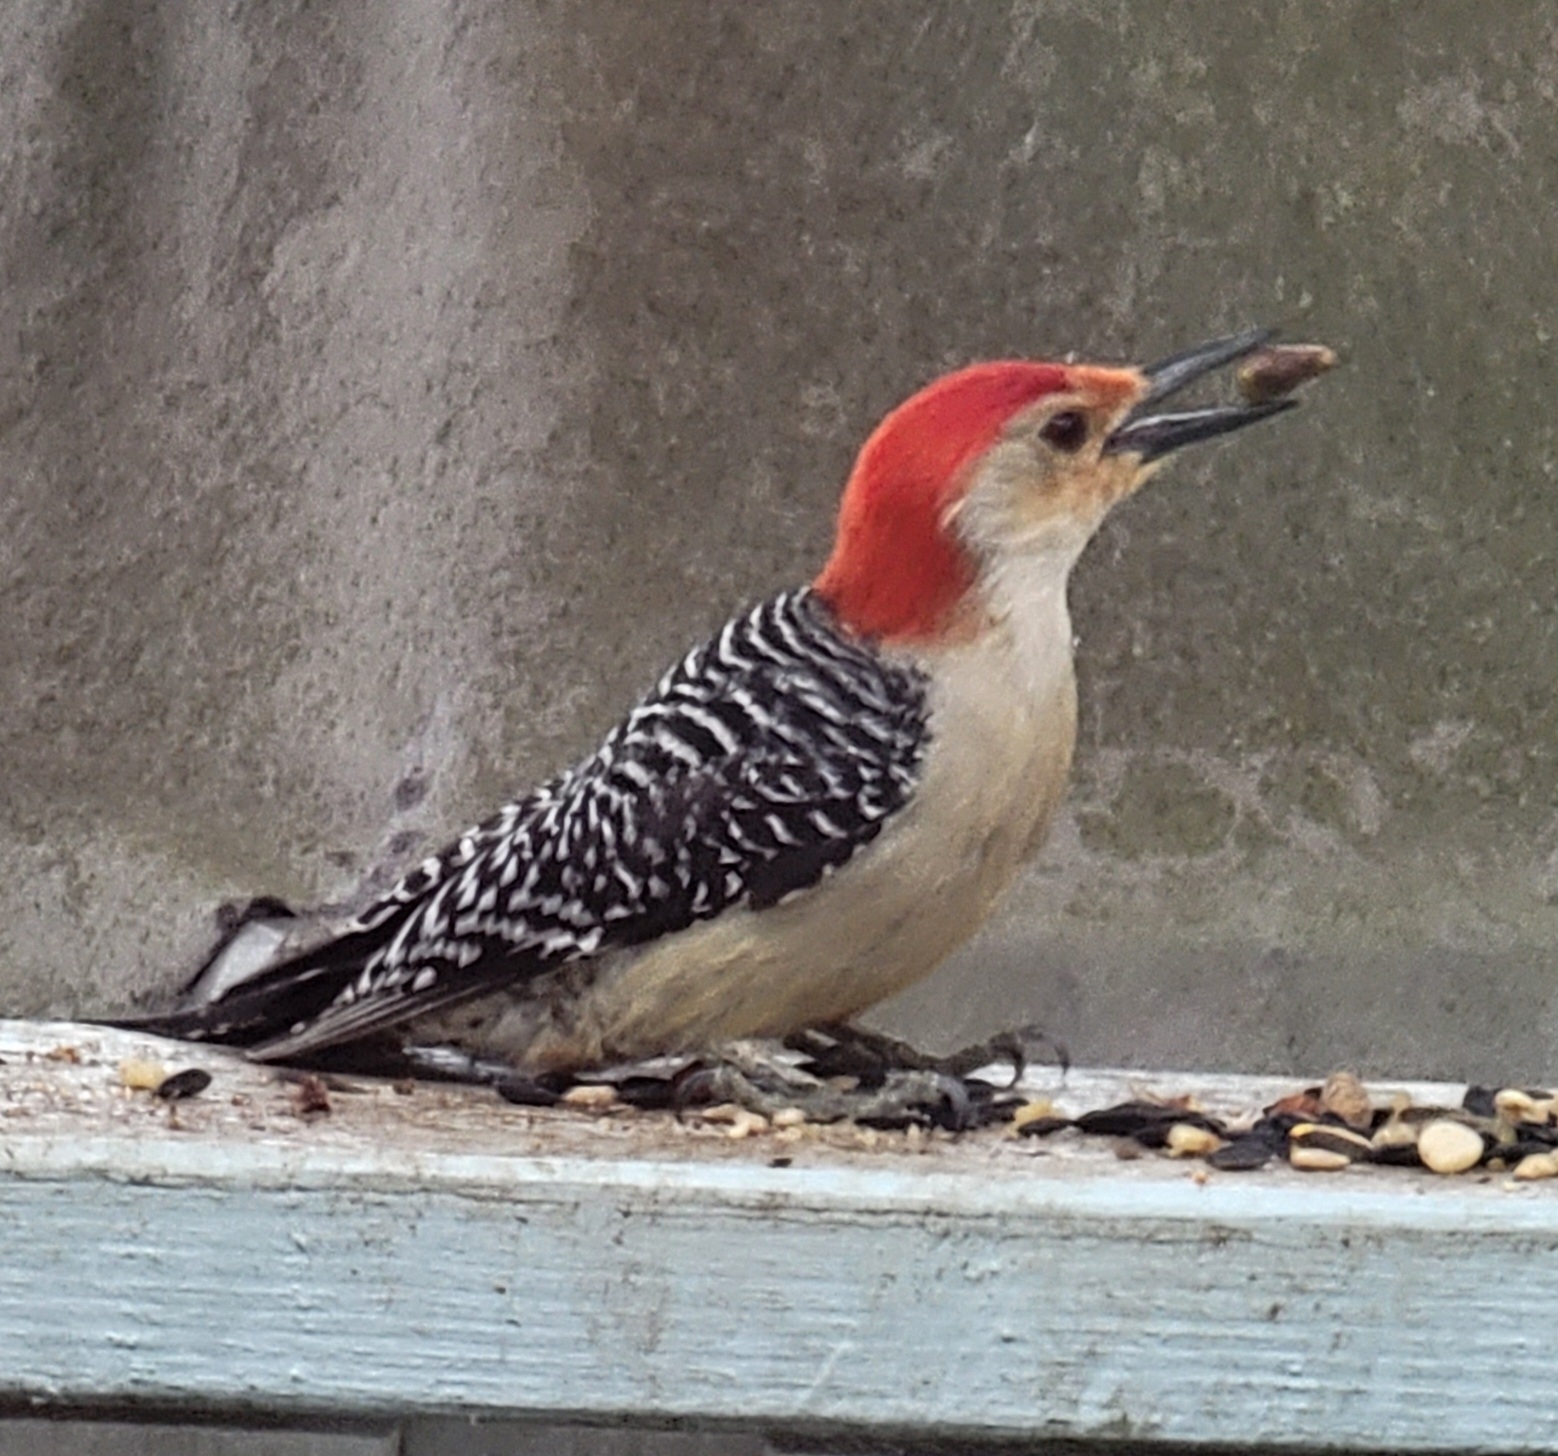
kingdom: Animalia
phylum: Chordata
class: Aves
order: Piciformes
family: Picidae
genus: Melanerpes
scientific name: Melanerpes carolinus
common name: Red-bellied woodpecker
